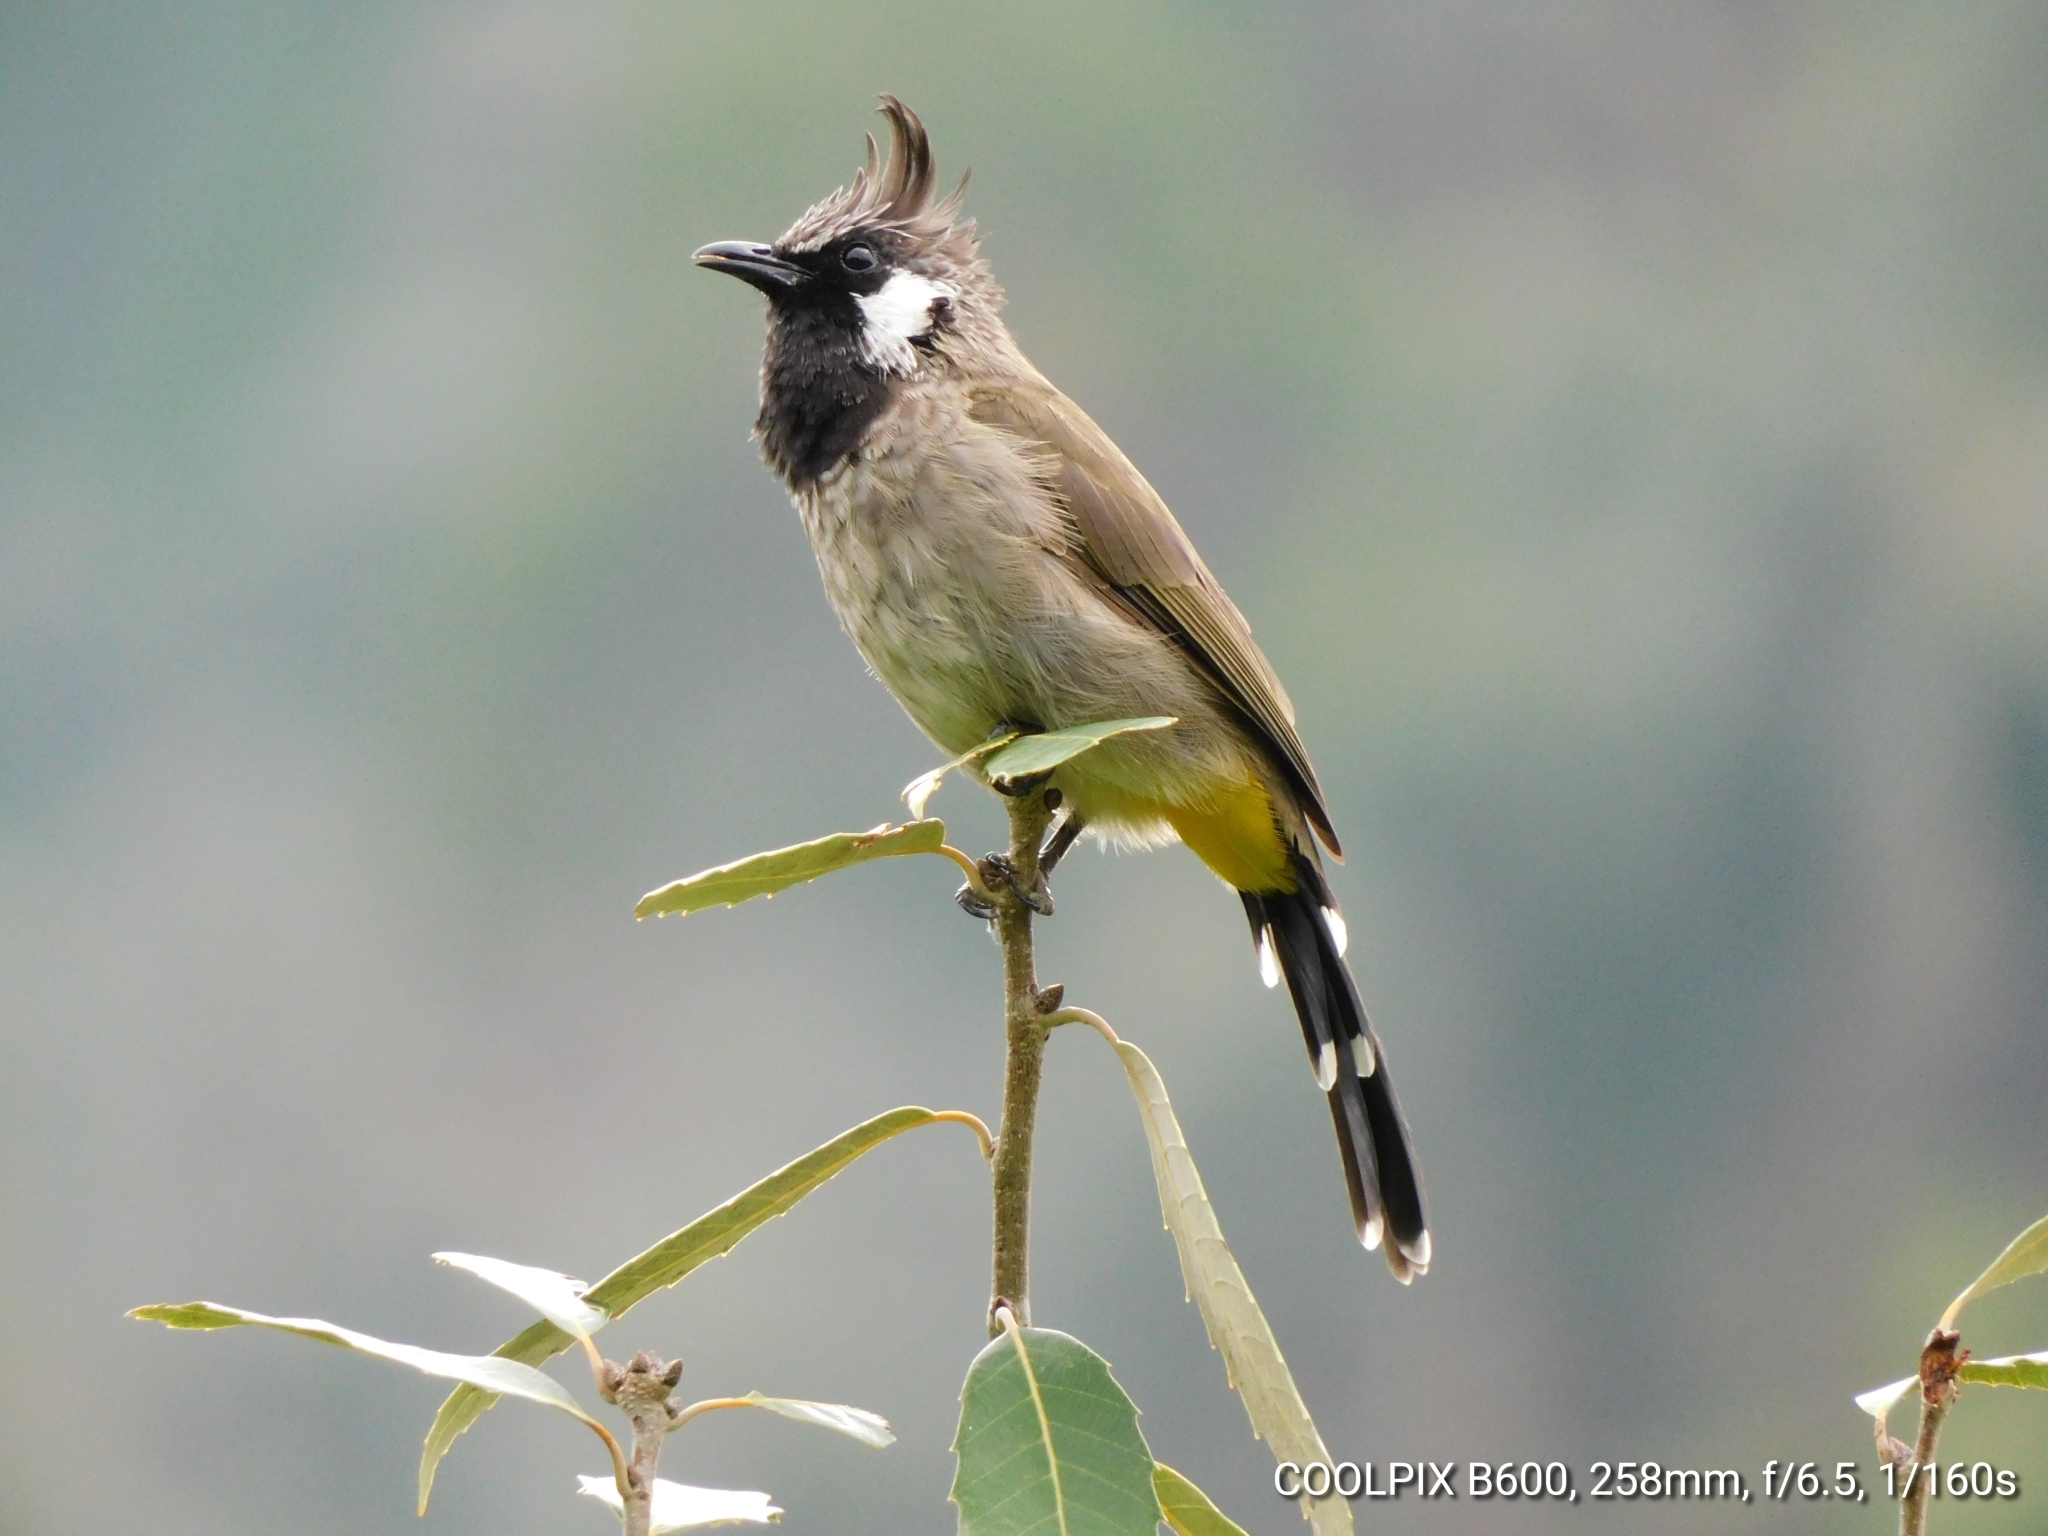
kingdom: Animalia
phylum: Chordata
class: Aves
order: Passeriformes
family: Pycnonotidae
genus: Pycnonotus
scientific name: Pycnonotus leucogenys
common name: Himalayan bulbul
